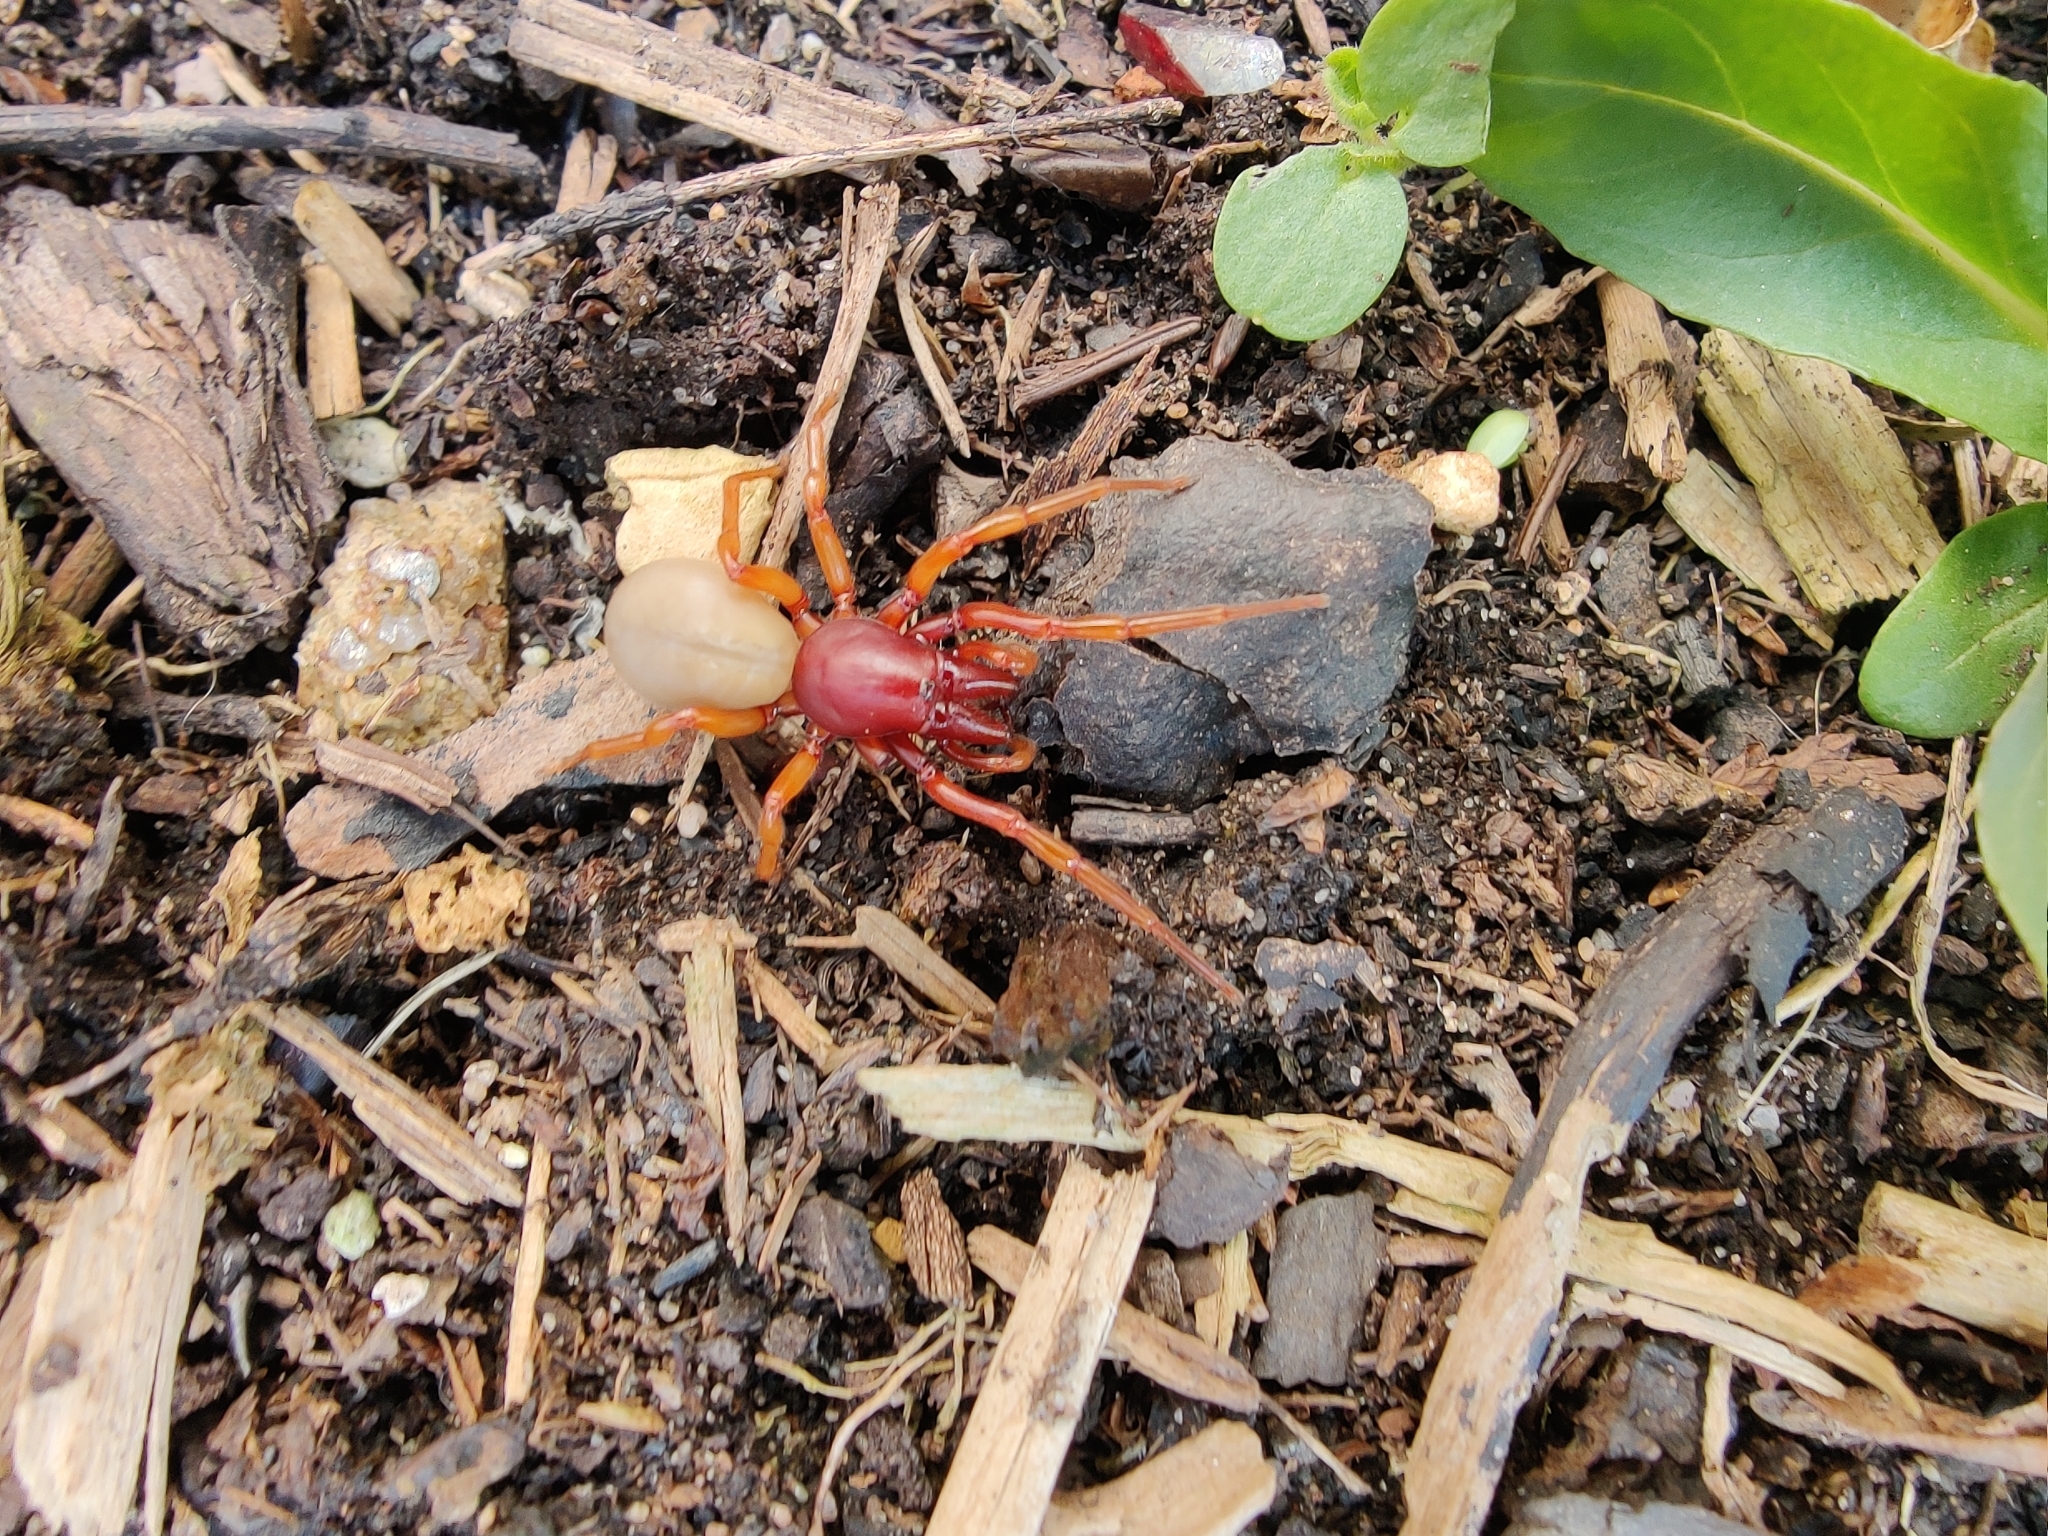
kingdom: Animalia
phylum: Arthropoda
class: Arachnida
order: Araneae
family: Dysderidae
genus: Dysdera
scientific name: Dysdera crocata
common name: Woodlouse spider
